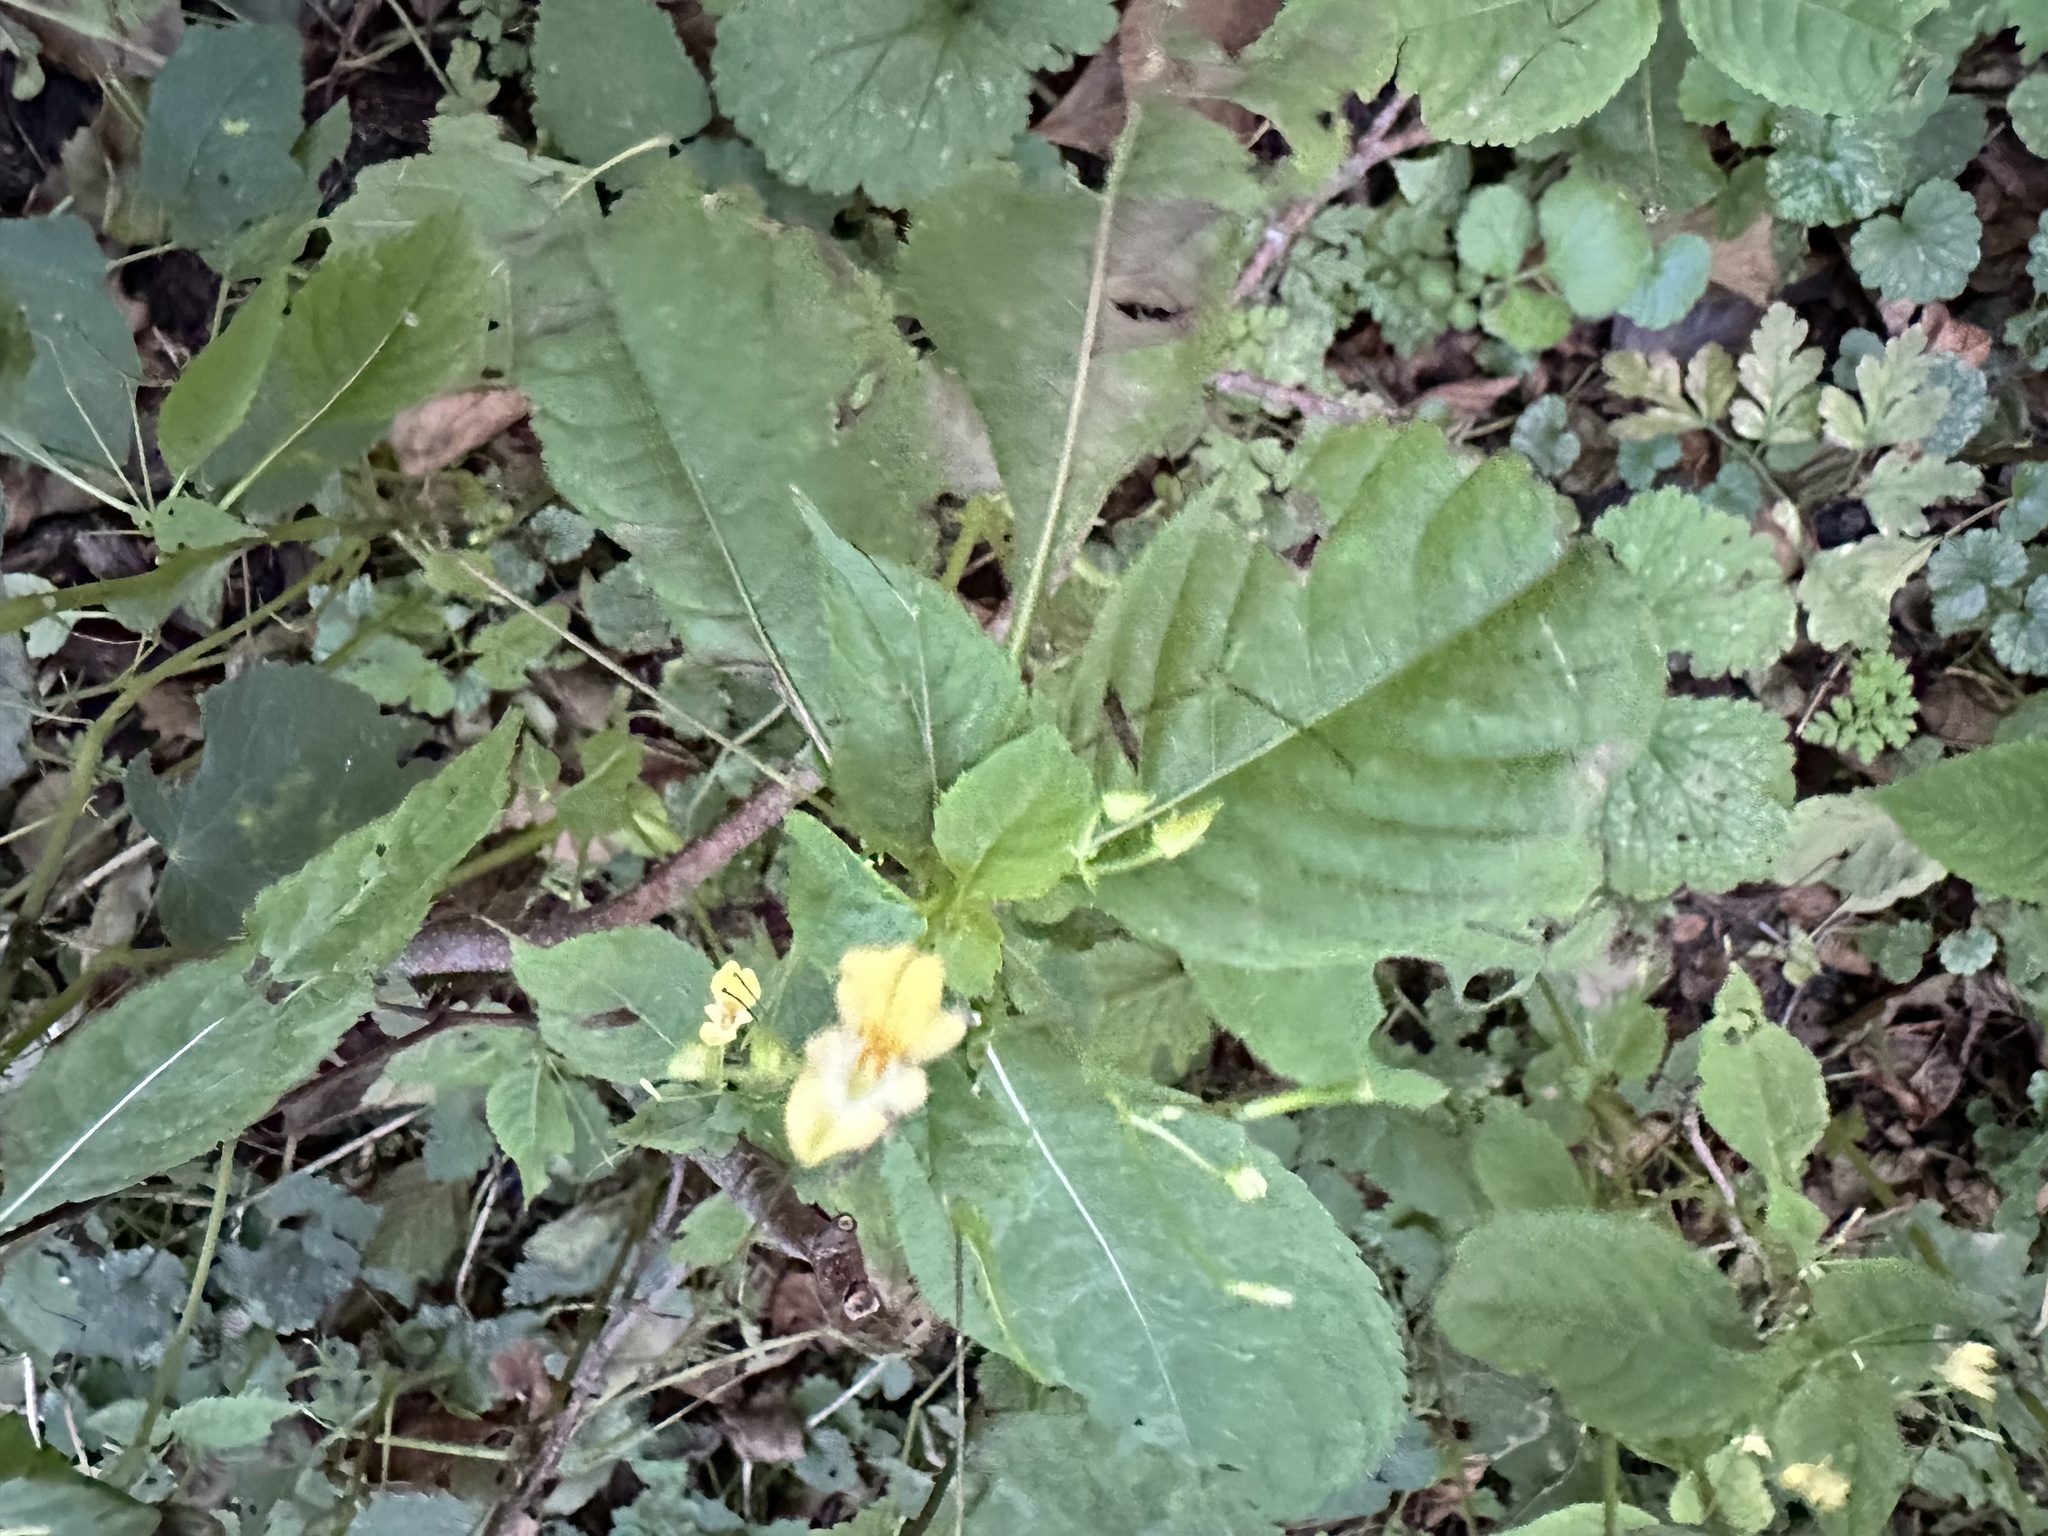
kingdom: Plantae
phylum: Tracheophyta
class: Magnoliopsida
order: Ericales
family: Balsaminaceae
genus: Impatiens
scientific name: Impatiens parviflora
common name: Small balsam
